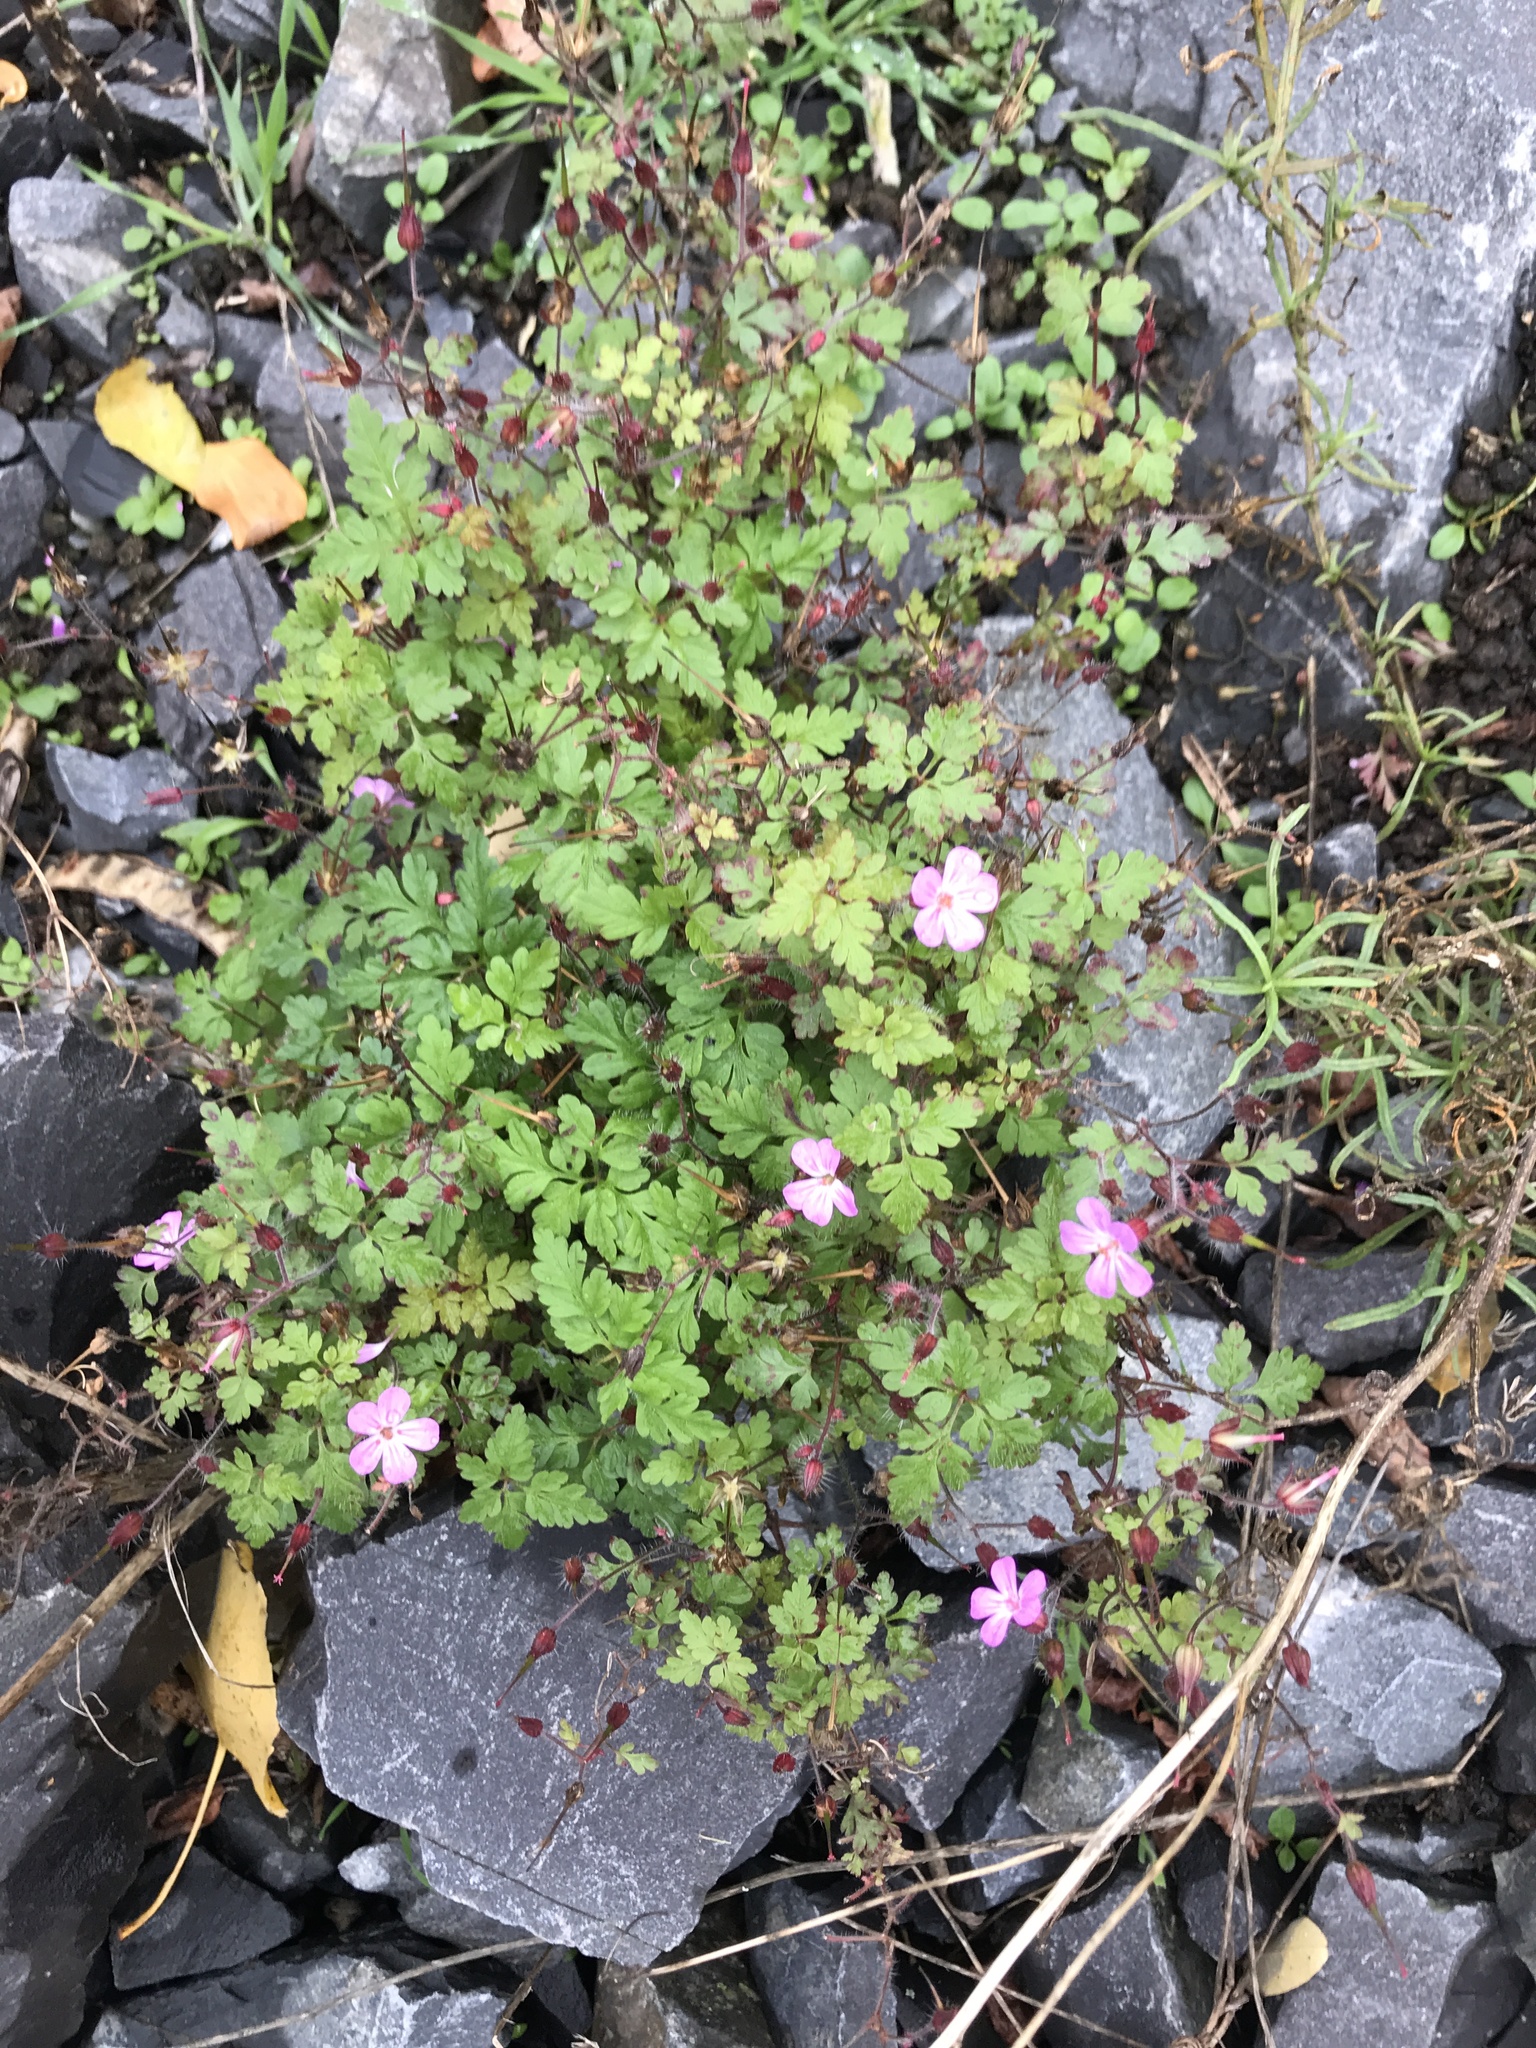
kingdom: Plantae
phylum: Tracheophyta
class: Magnoliopsida
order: Geraniales
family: Geraniaceae
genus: Geranium
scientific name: Geranium robertianum
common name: Herb-robert
